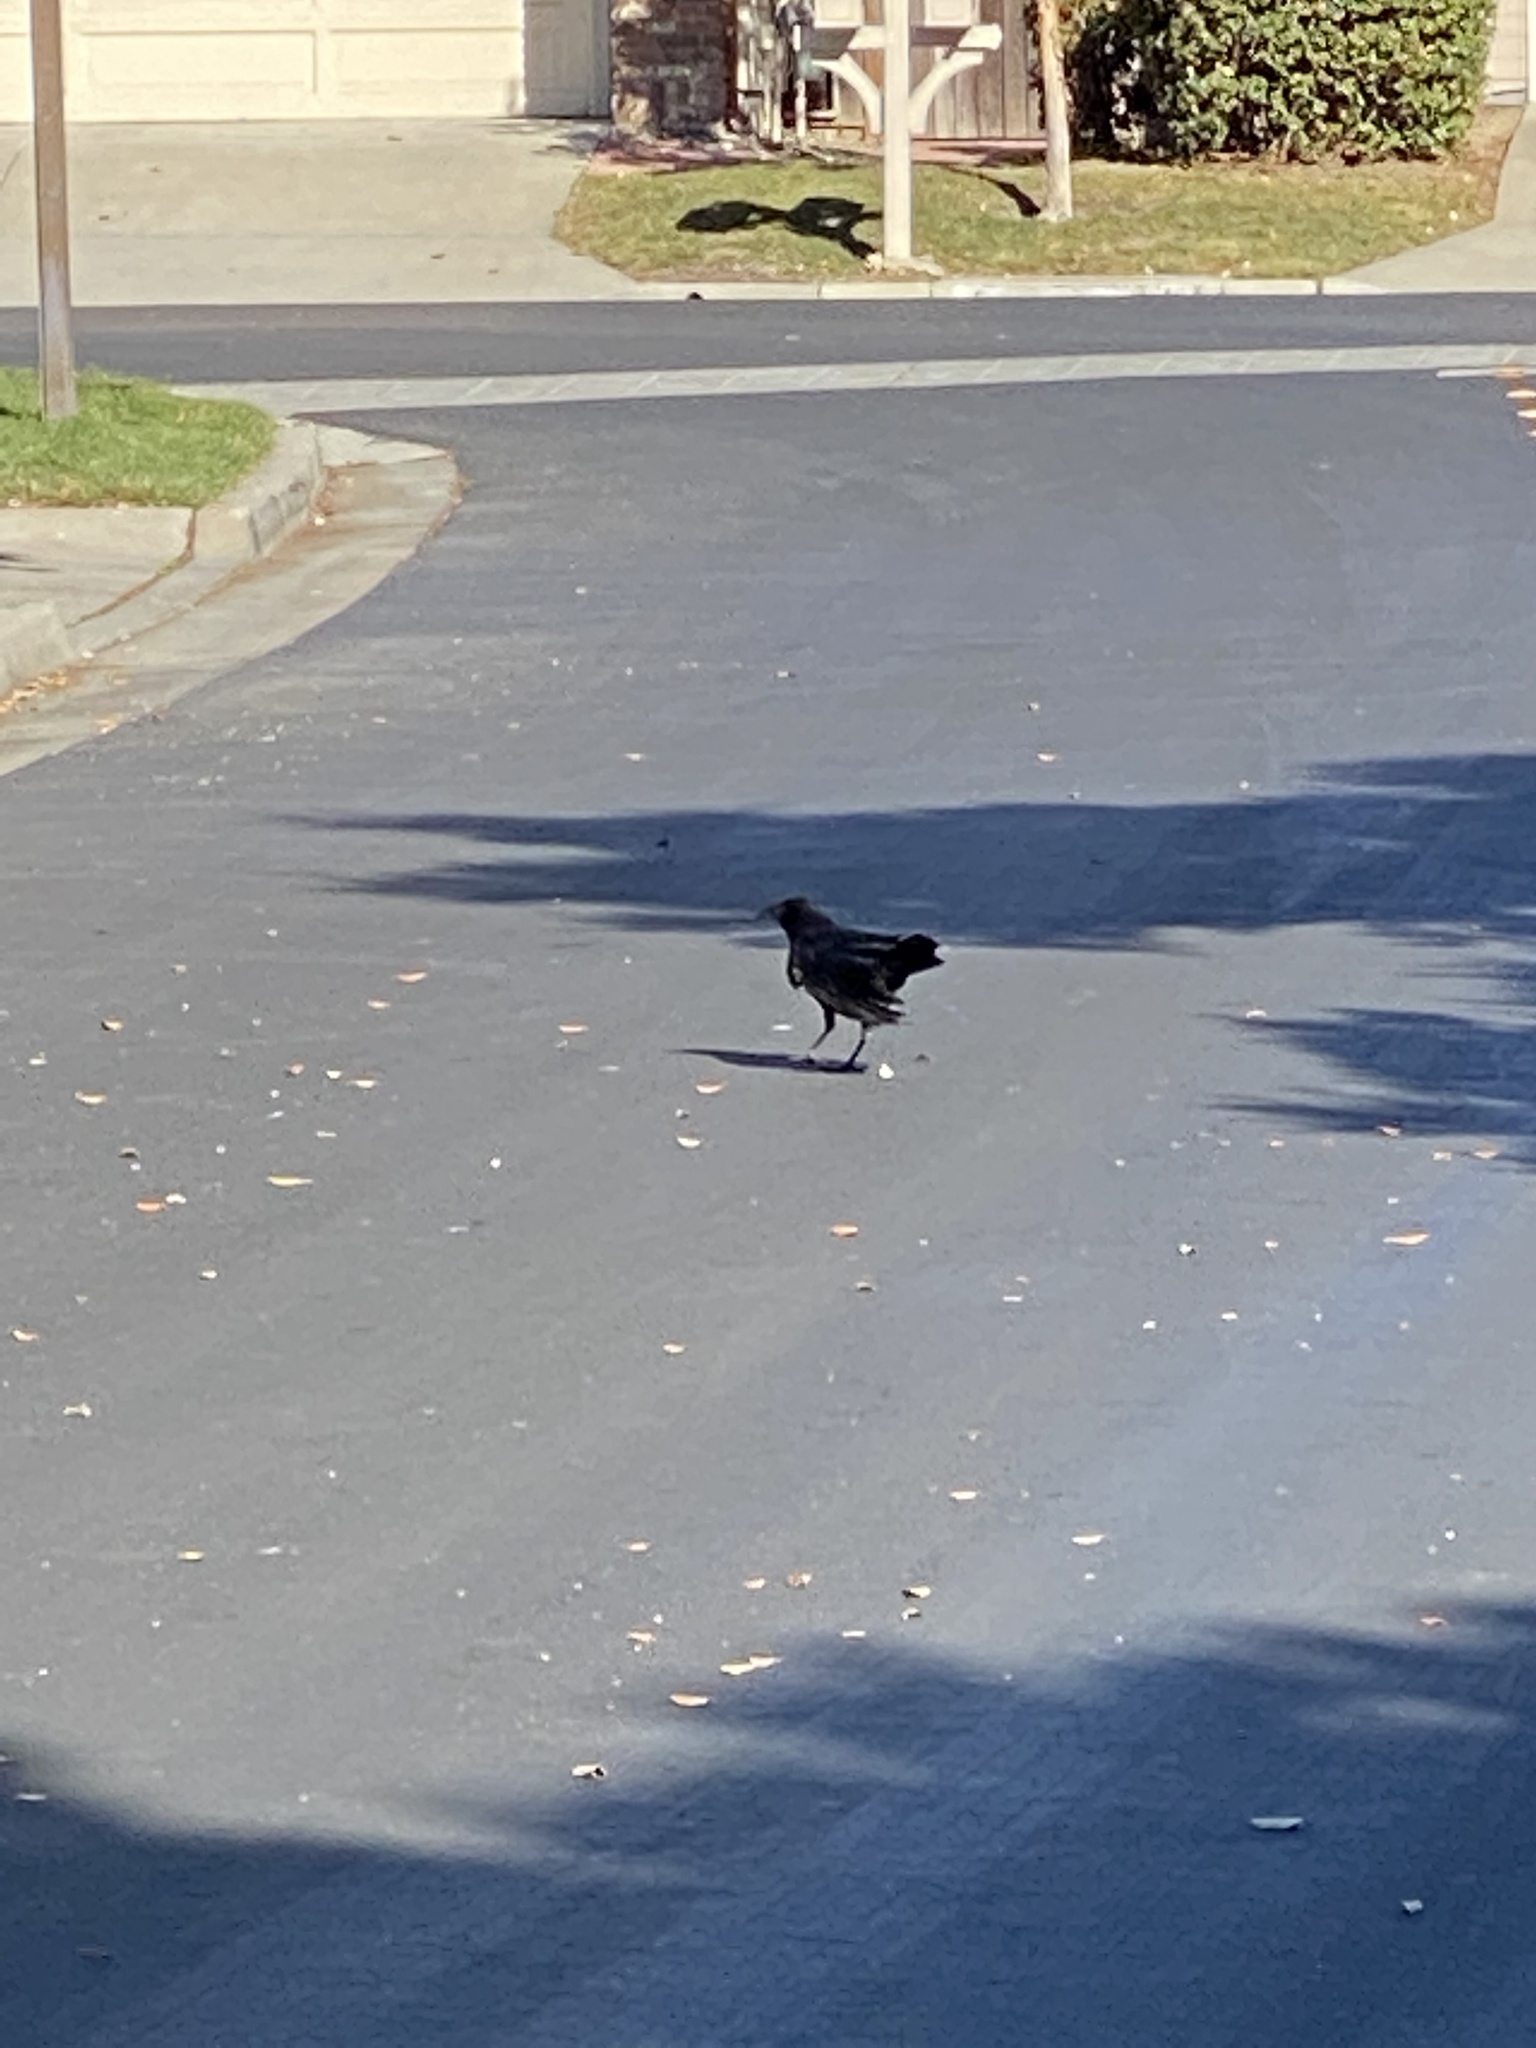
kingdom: Animalia
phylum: Chordata
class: Aves
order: Passeriformes
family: Corvidae
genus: Corvus
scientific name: Corvus brachyrhynchos
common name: American crow
